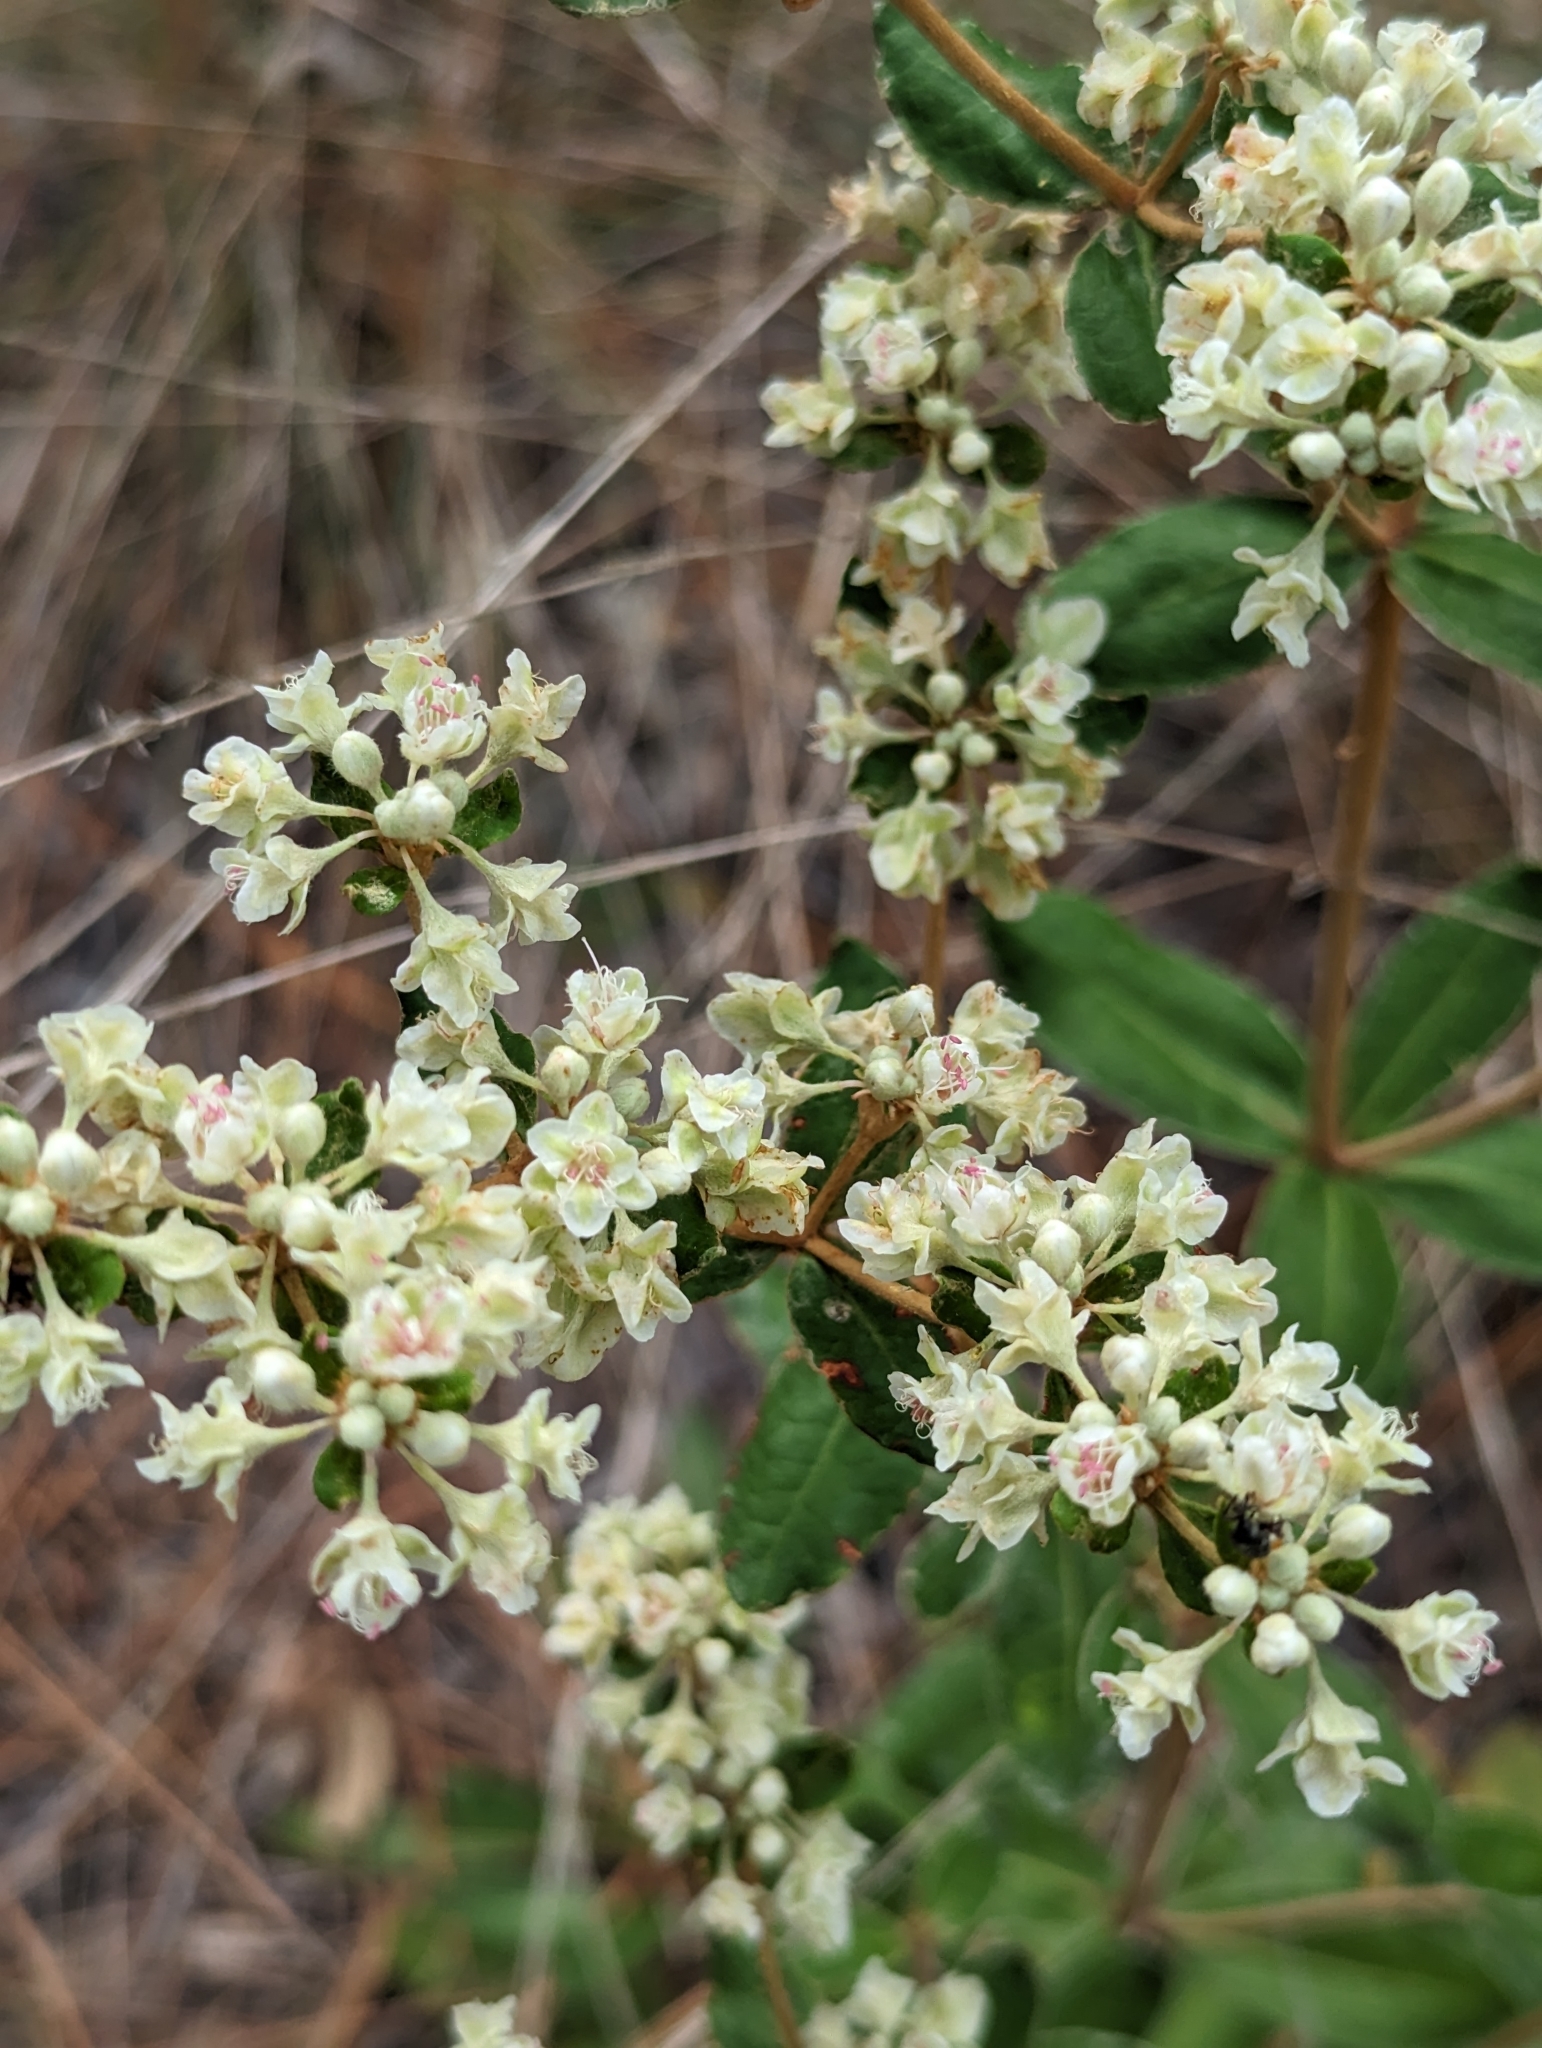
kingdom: Plantae
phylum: Tracheophyta
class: Magnoliopsida
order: Caryophyllales
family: Polygonaceae
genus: Eriogonum
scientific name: Eriogonum tomentosum
